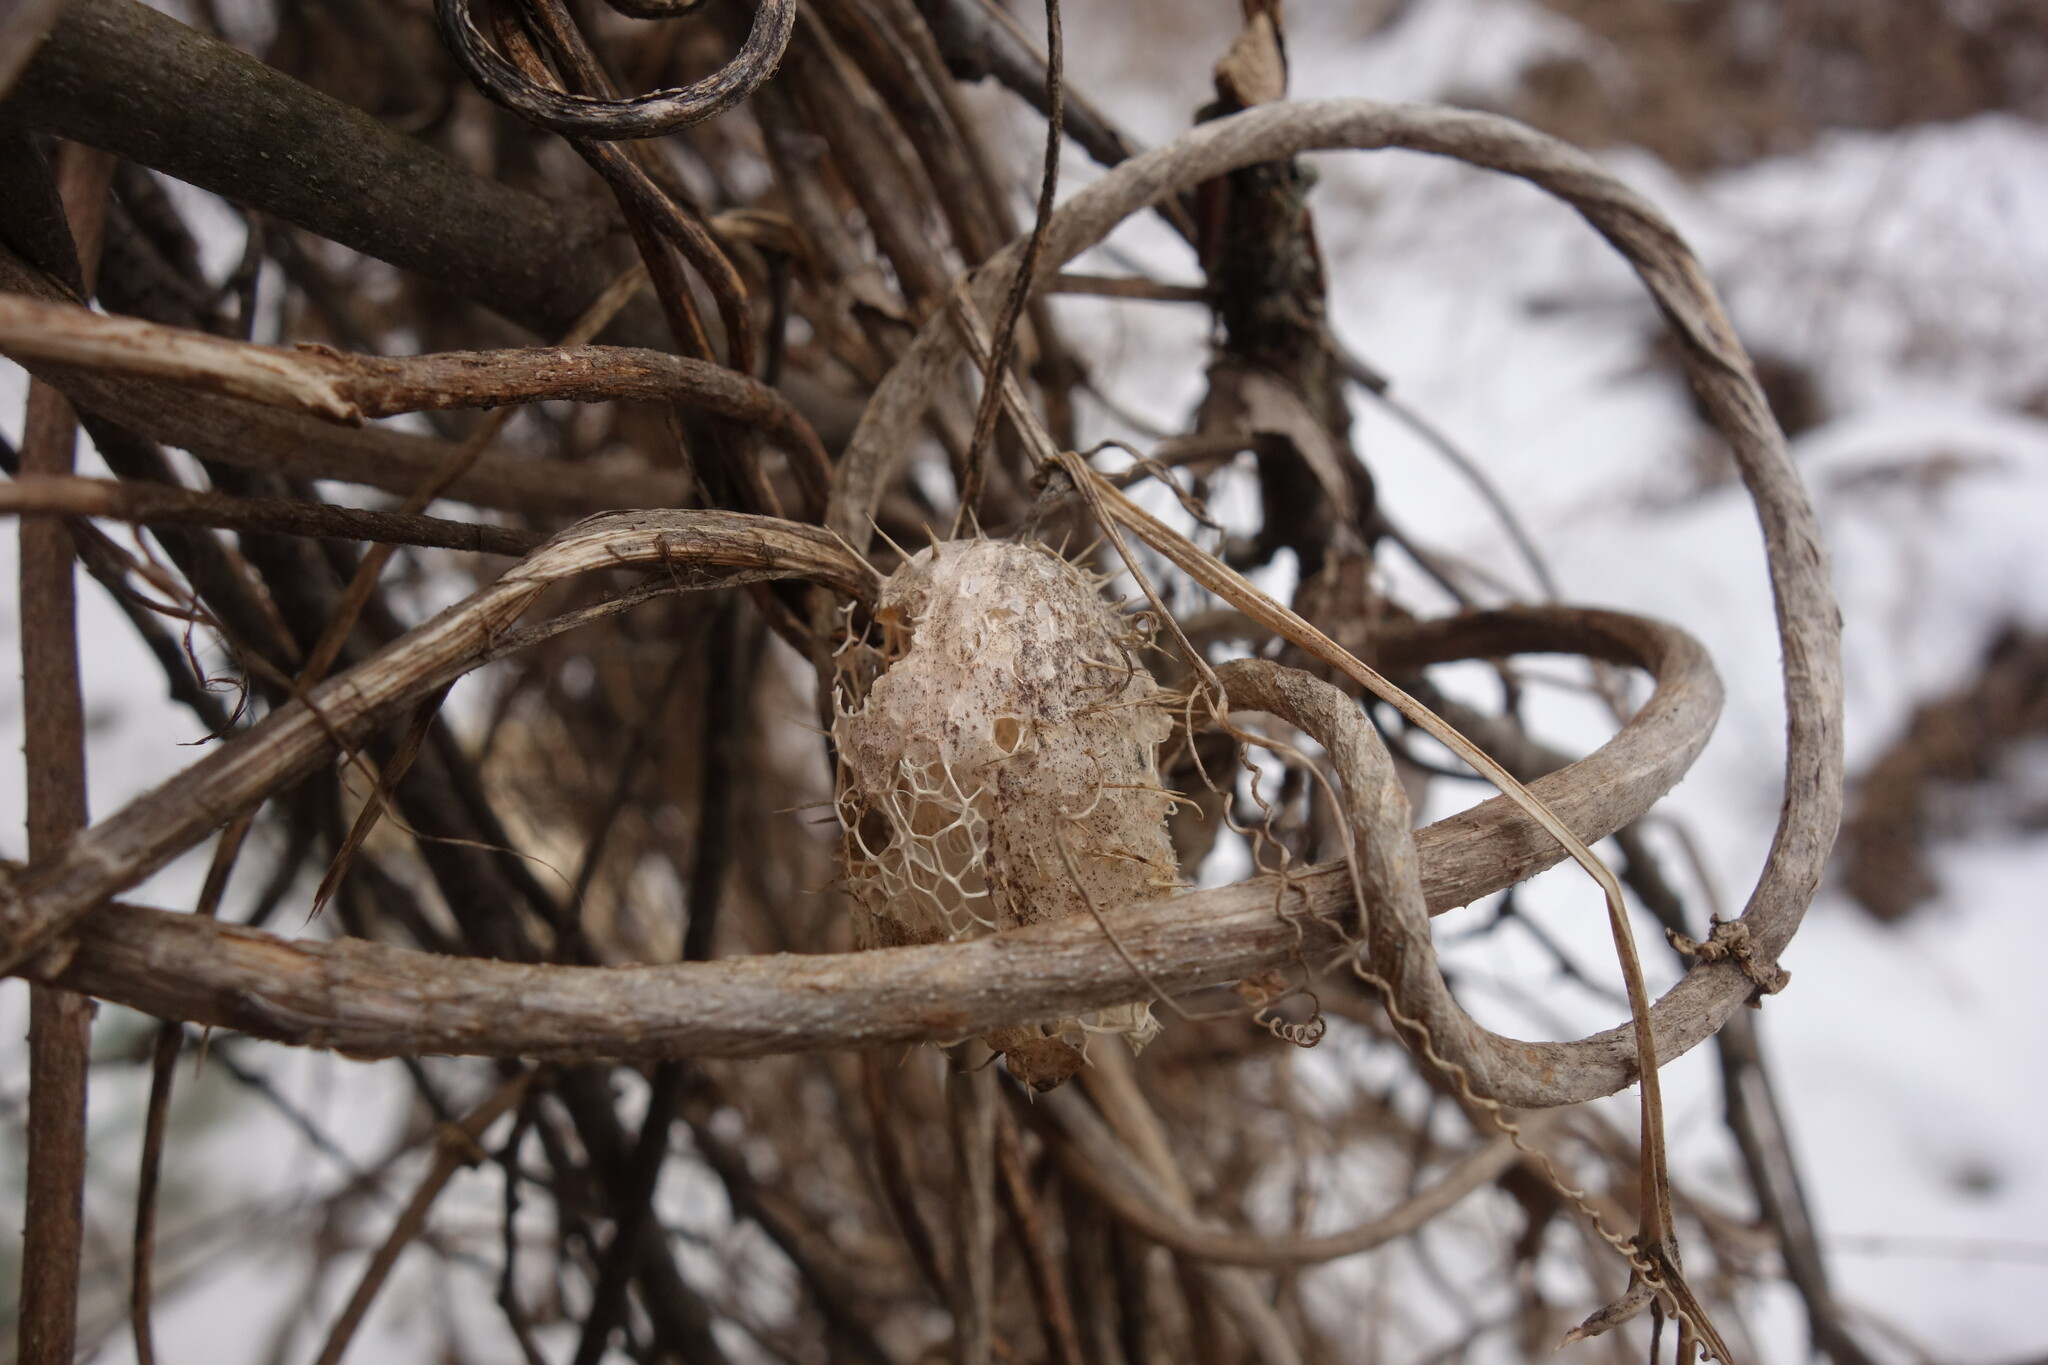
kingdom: Plantae
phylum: Tracheophyta
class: Magnoliopsida
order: Cucurbitales
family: Cucurbitaceae
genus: Echinocystis
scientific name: Echinocystis lobata
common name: Wild cucumber
